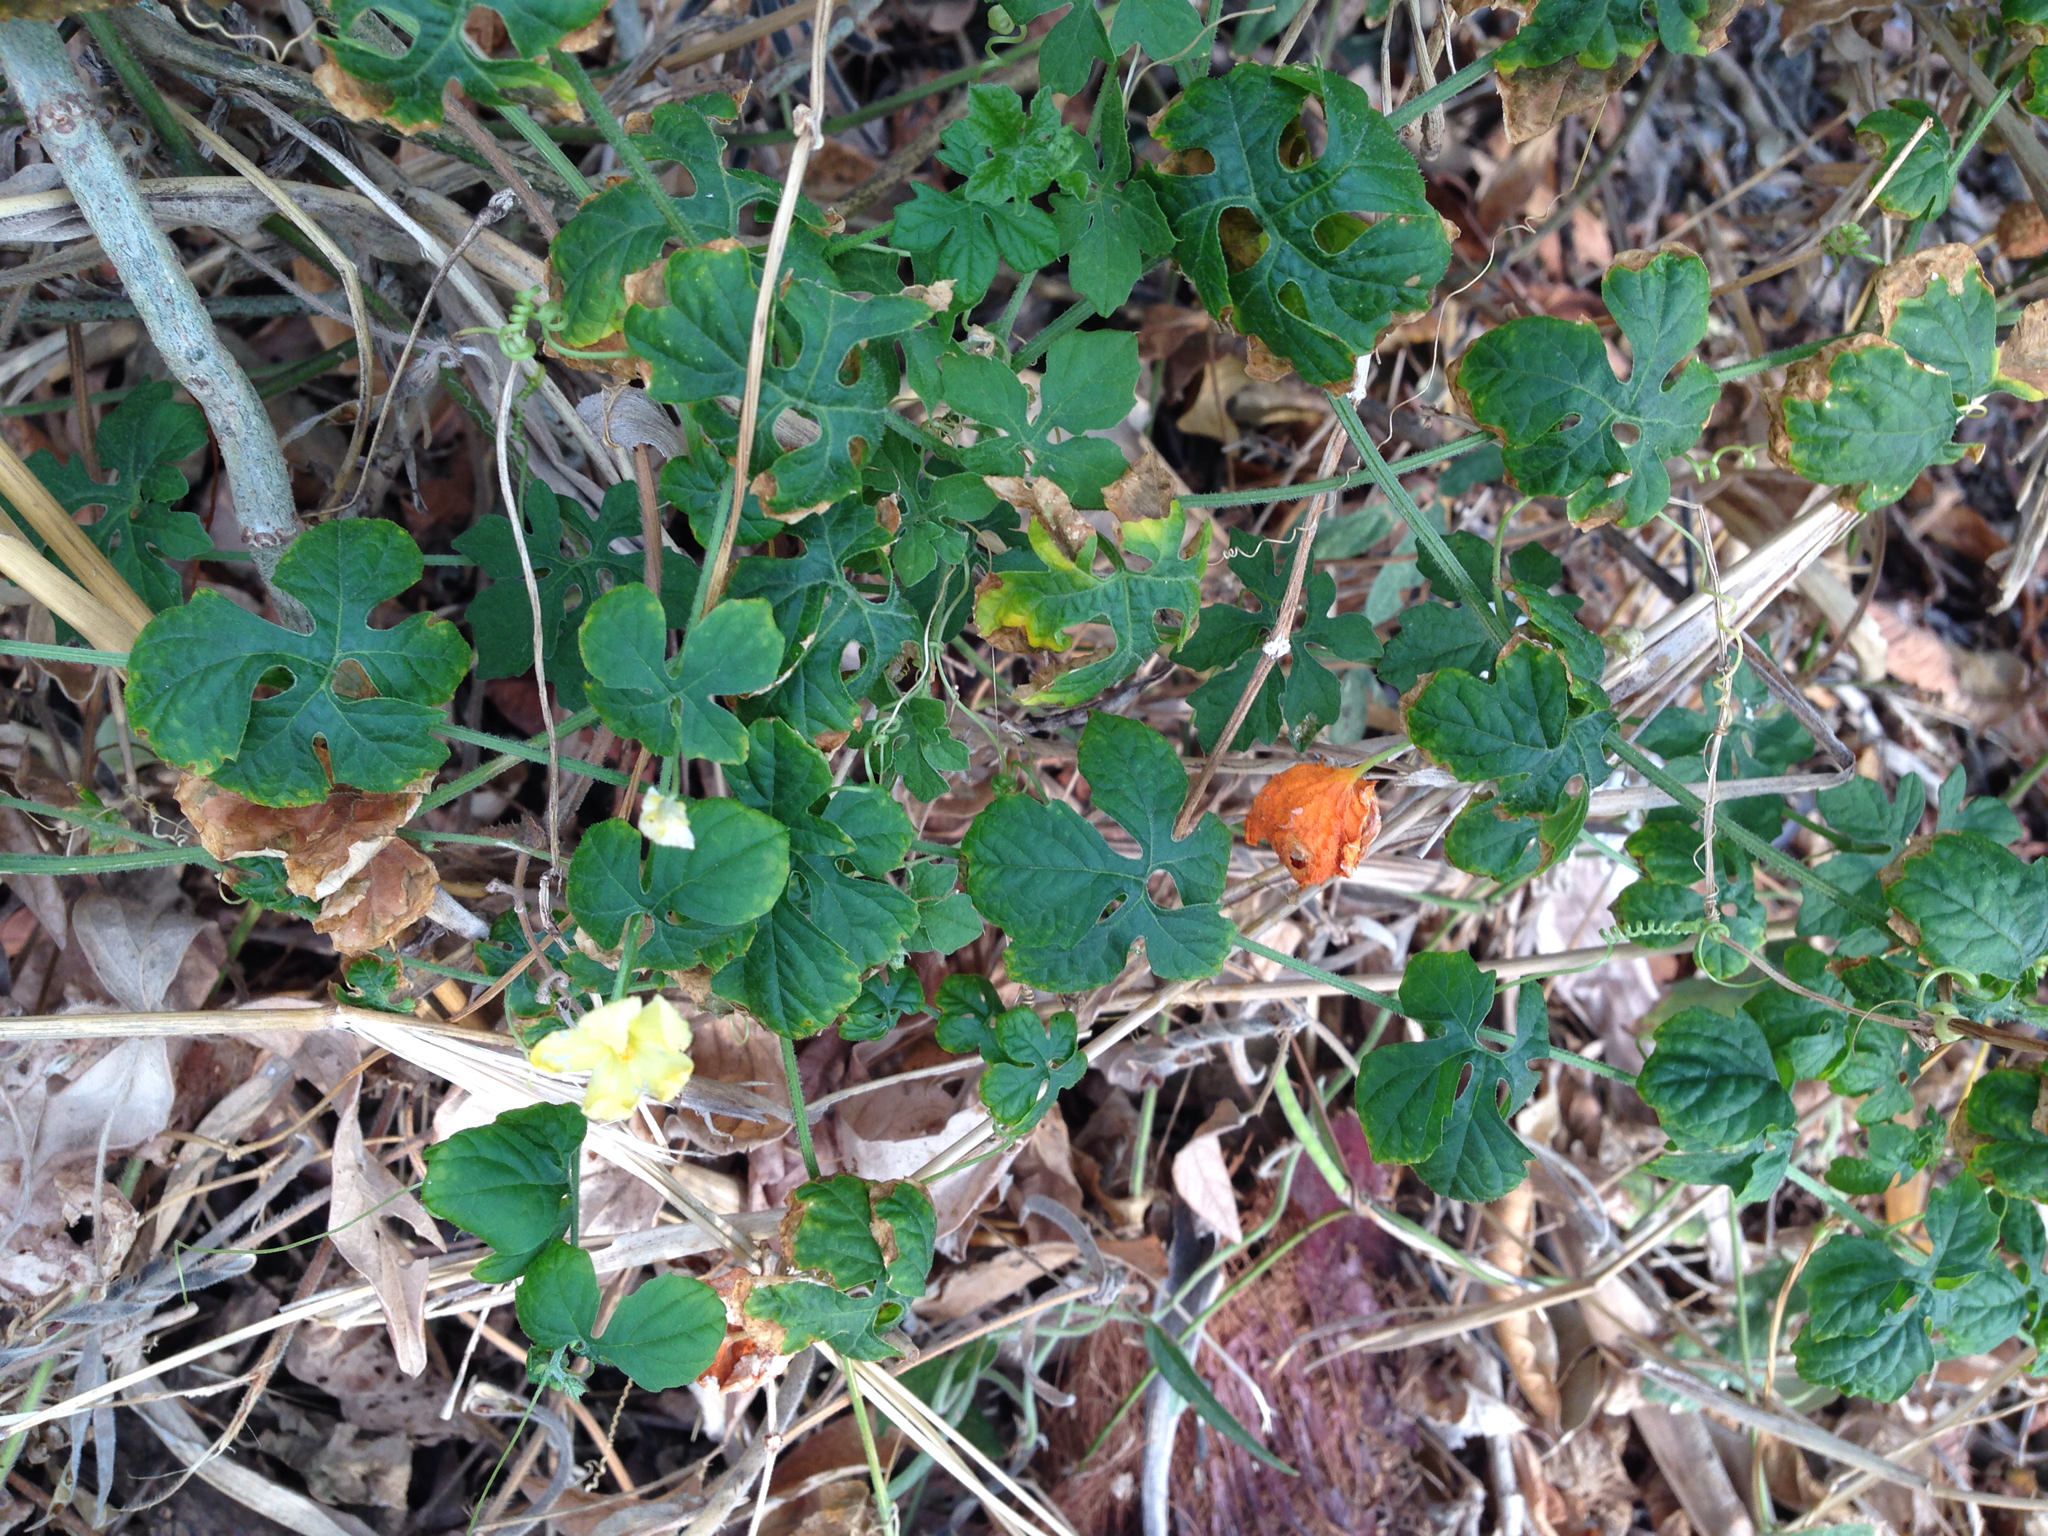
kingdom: Plantae
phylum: Tracheophyta
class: Magnoliopsida
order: Cucurbitales
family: Cucurbitaceae
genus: Momordica
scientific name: Momordica charantia
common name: Balsampear
